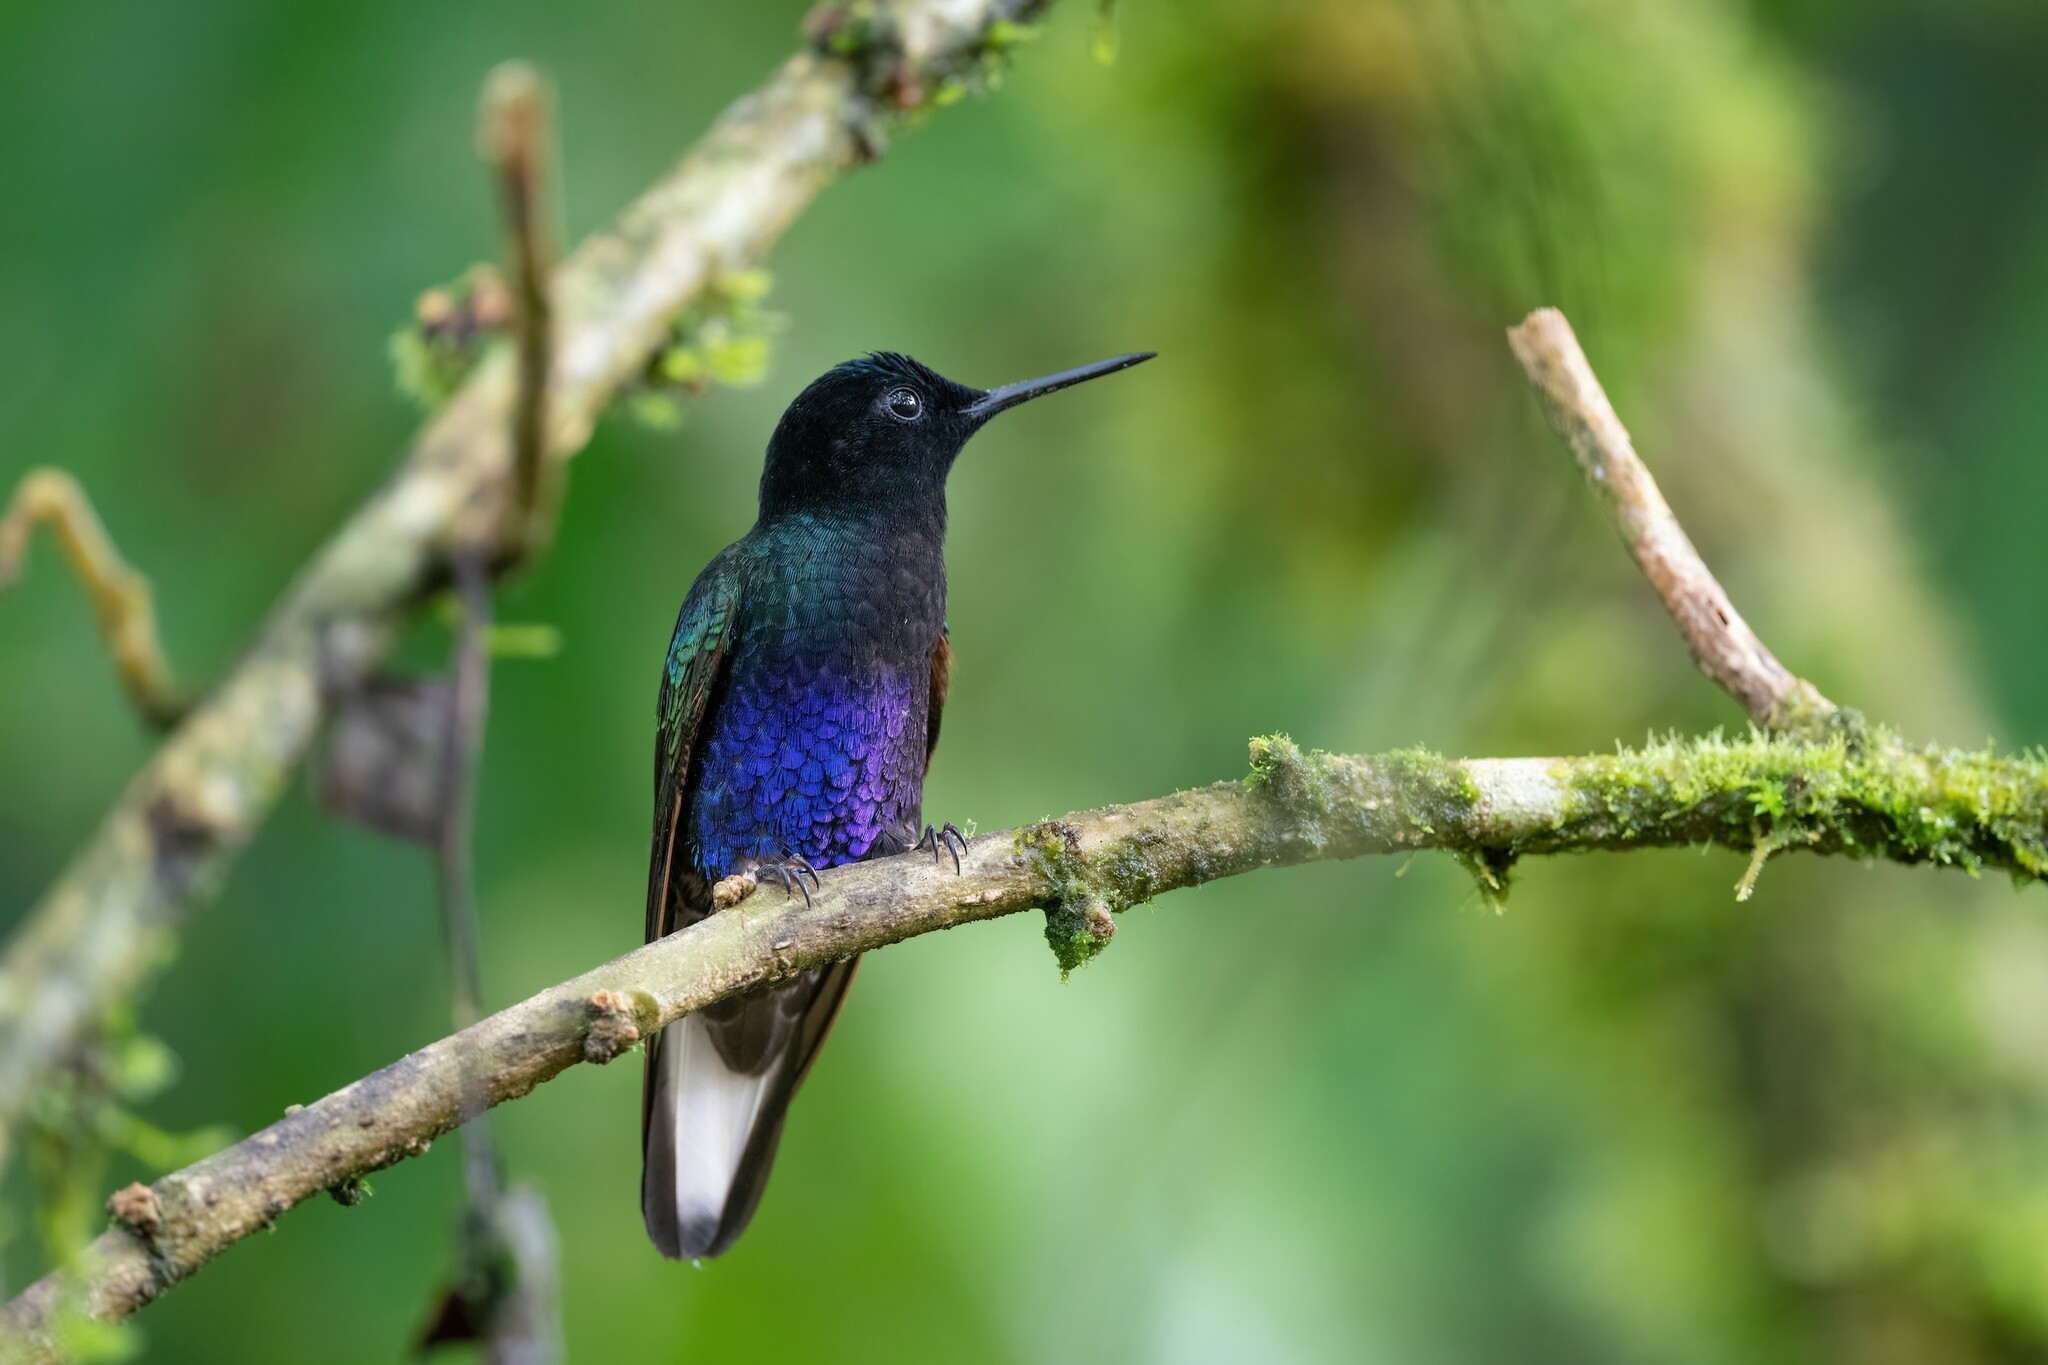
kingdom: Animalia
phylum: Chordata
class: Aves
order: Apodiformes
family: Trochilidae
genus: Boissonneaua
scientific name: Boissonneaua jardini
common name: Velvet-purple coronet
